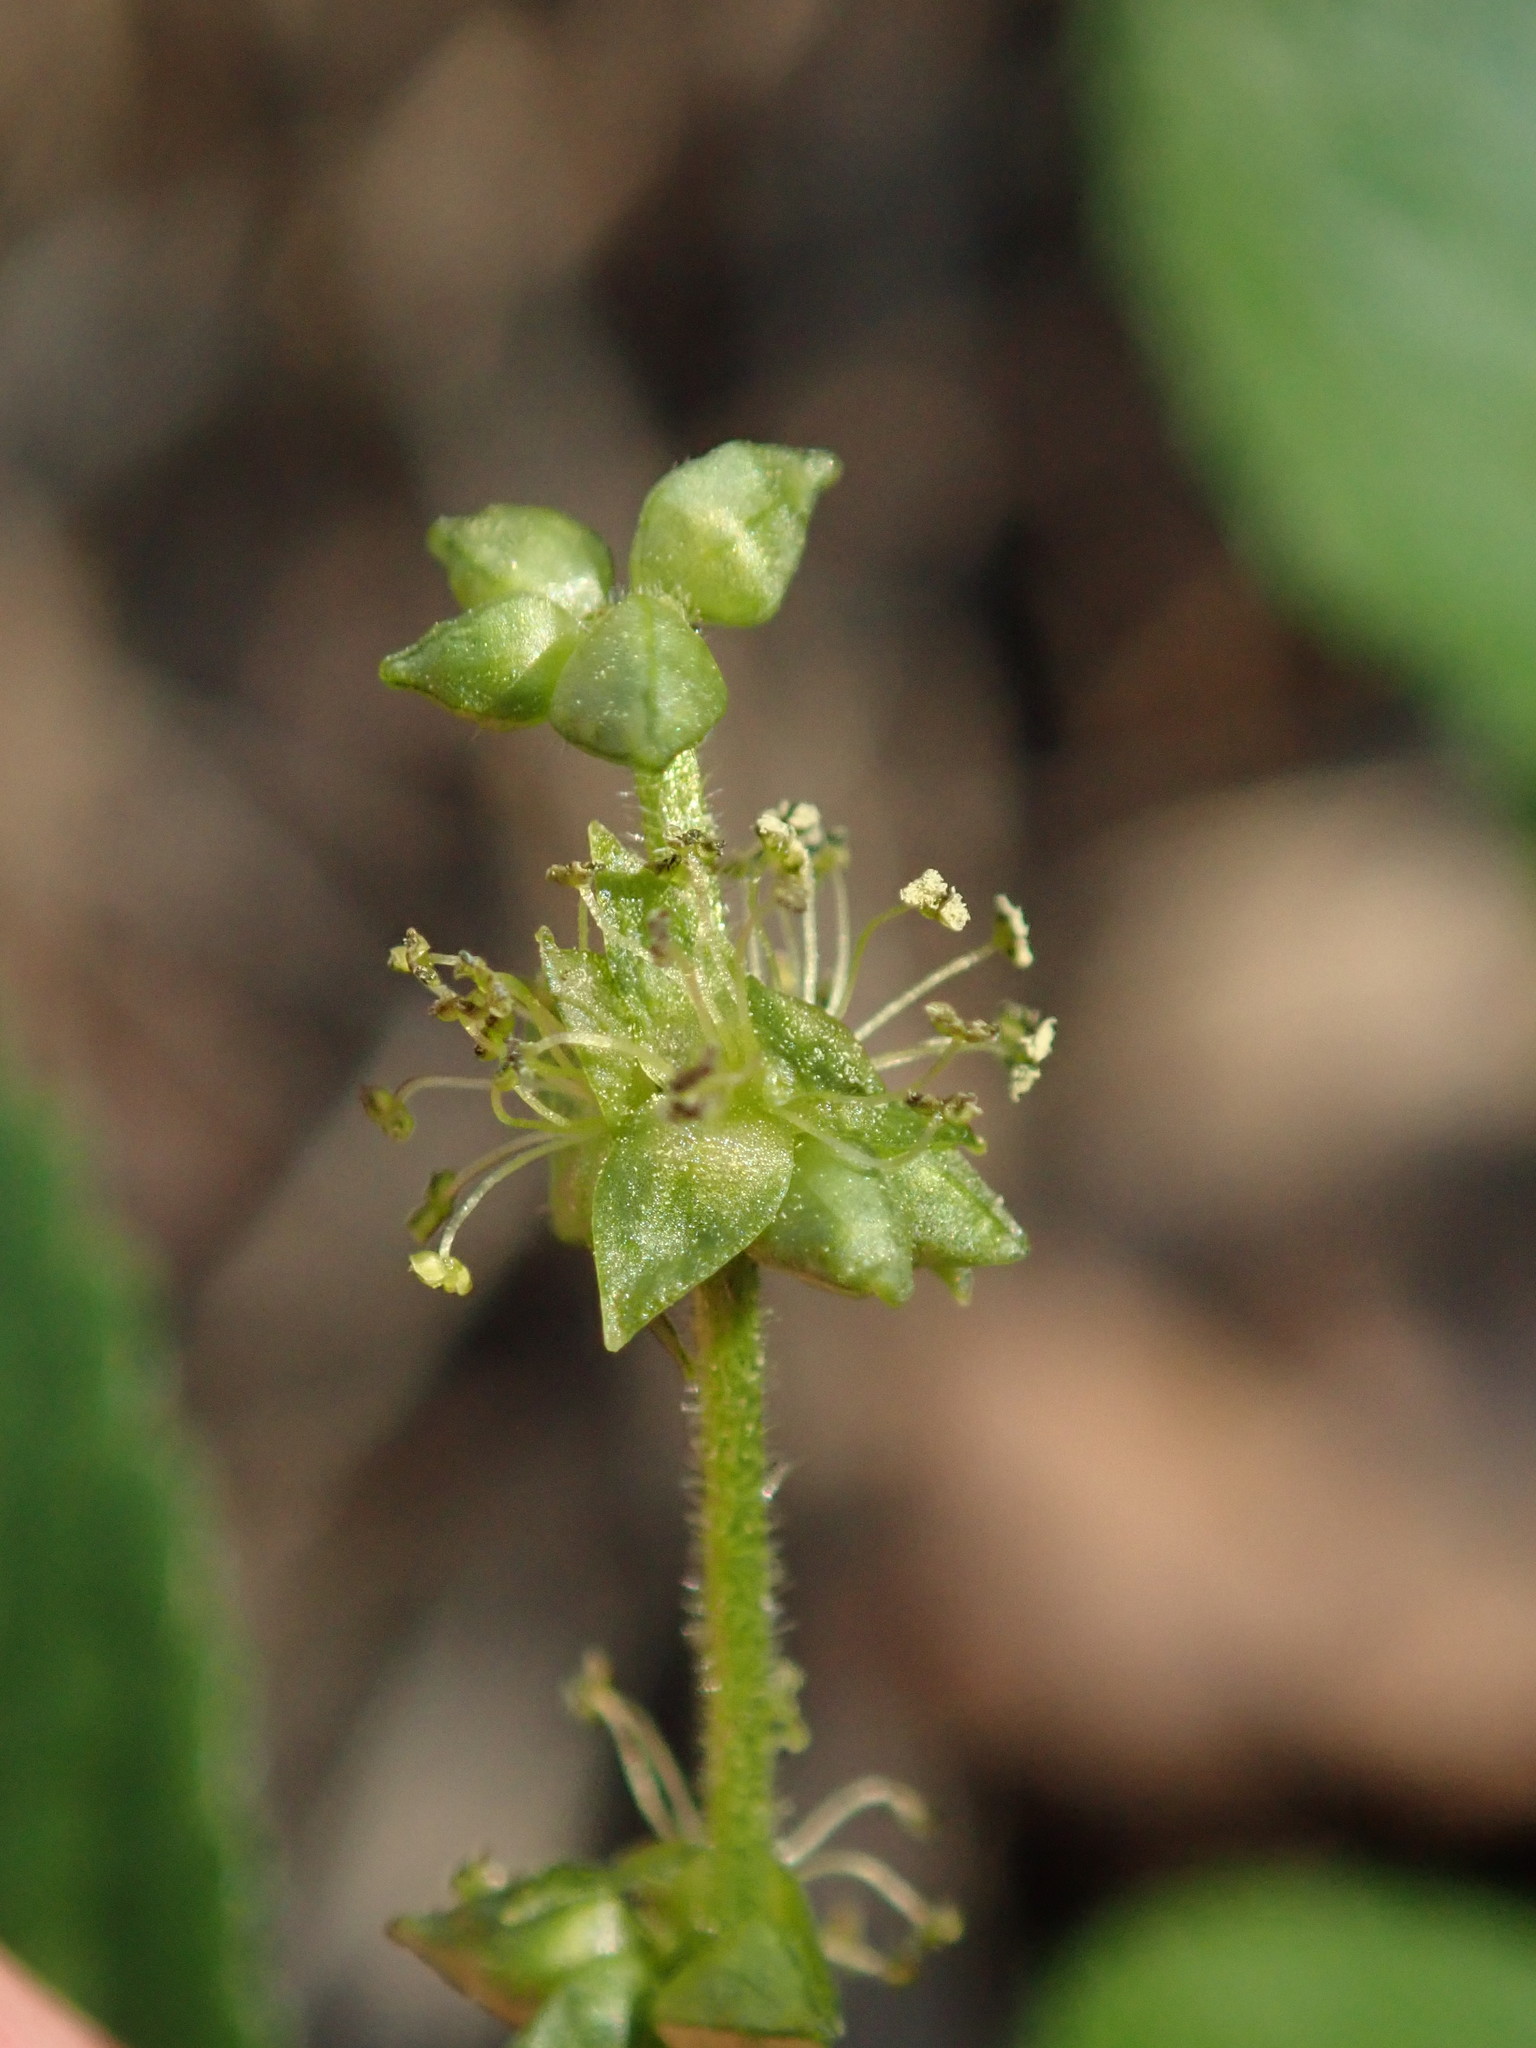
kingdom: Plantae
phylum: Tracheophyta
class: Magnoliopsida
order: Malpighiales
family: Euphorbiaceae
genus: Mercurialis
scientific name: Mercurialis perennis
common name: Dog mercury
